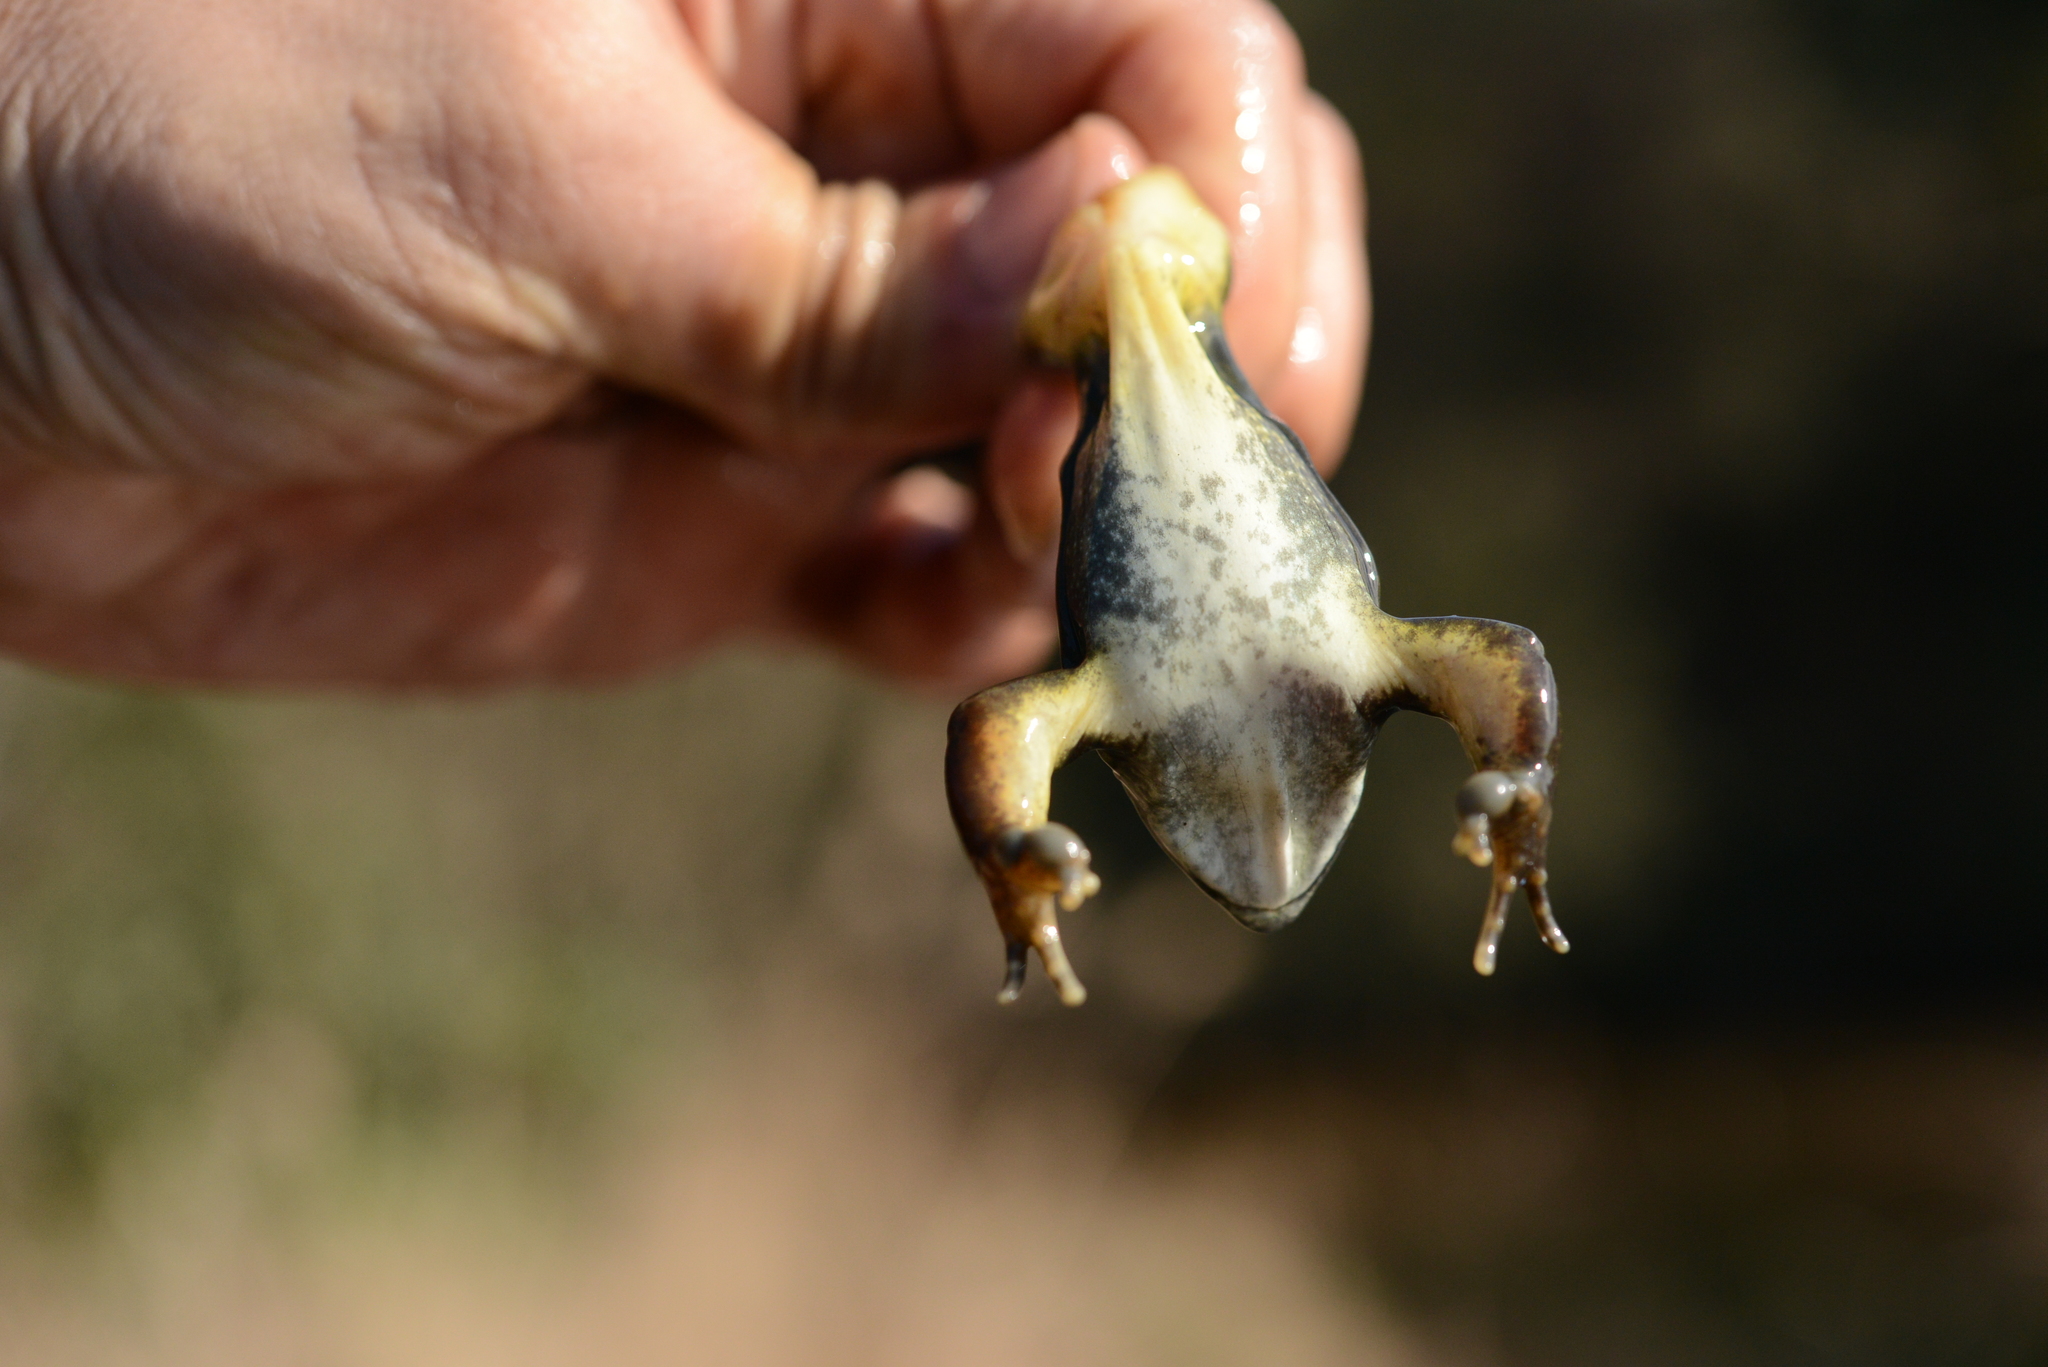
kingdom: Animalia
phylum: Chordata
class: Amphibia
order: Anura
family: Ranidae
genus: Rana
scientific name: Rana uenoi
